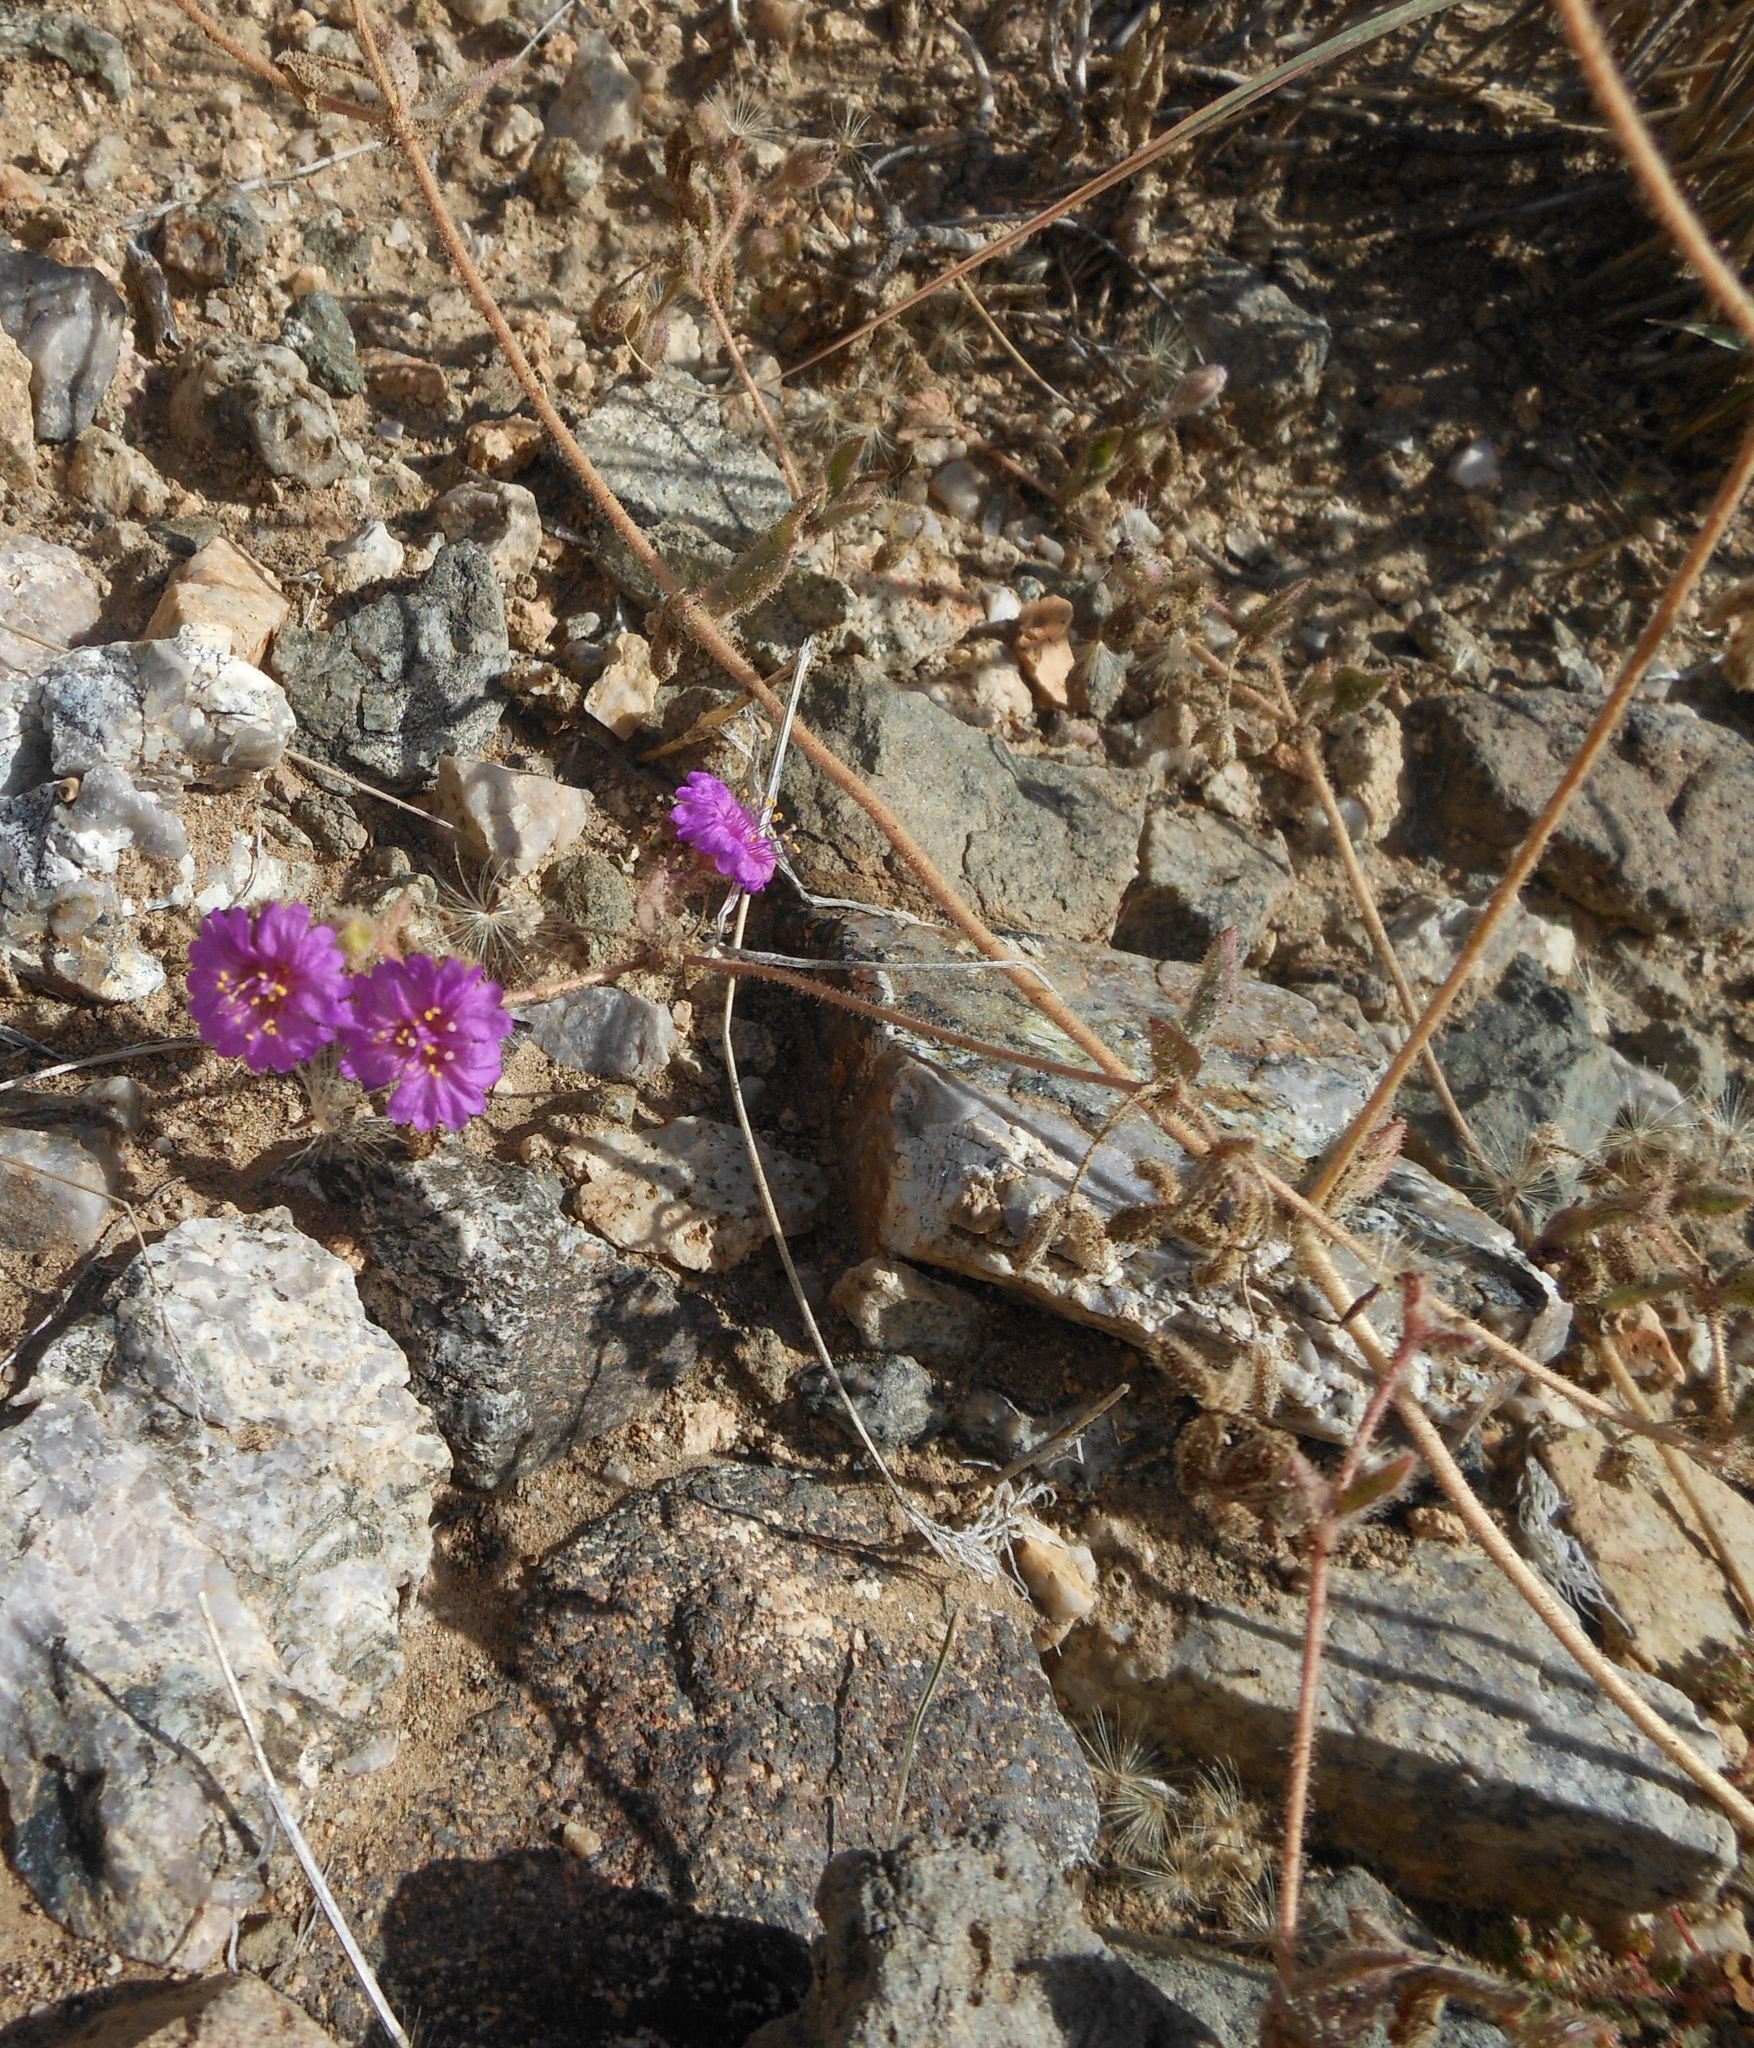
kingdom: Plantae
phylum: Tracheophyta
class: Magnoliopsida
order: Caryophyllales
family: Nyctaginaceae
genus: Allionia
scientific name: Allionia incarnata
